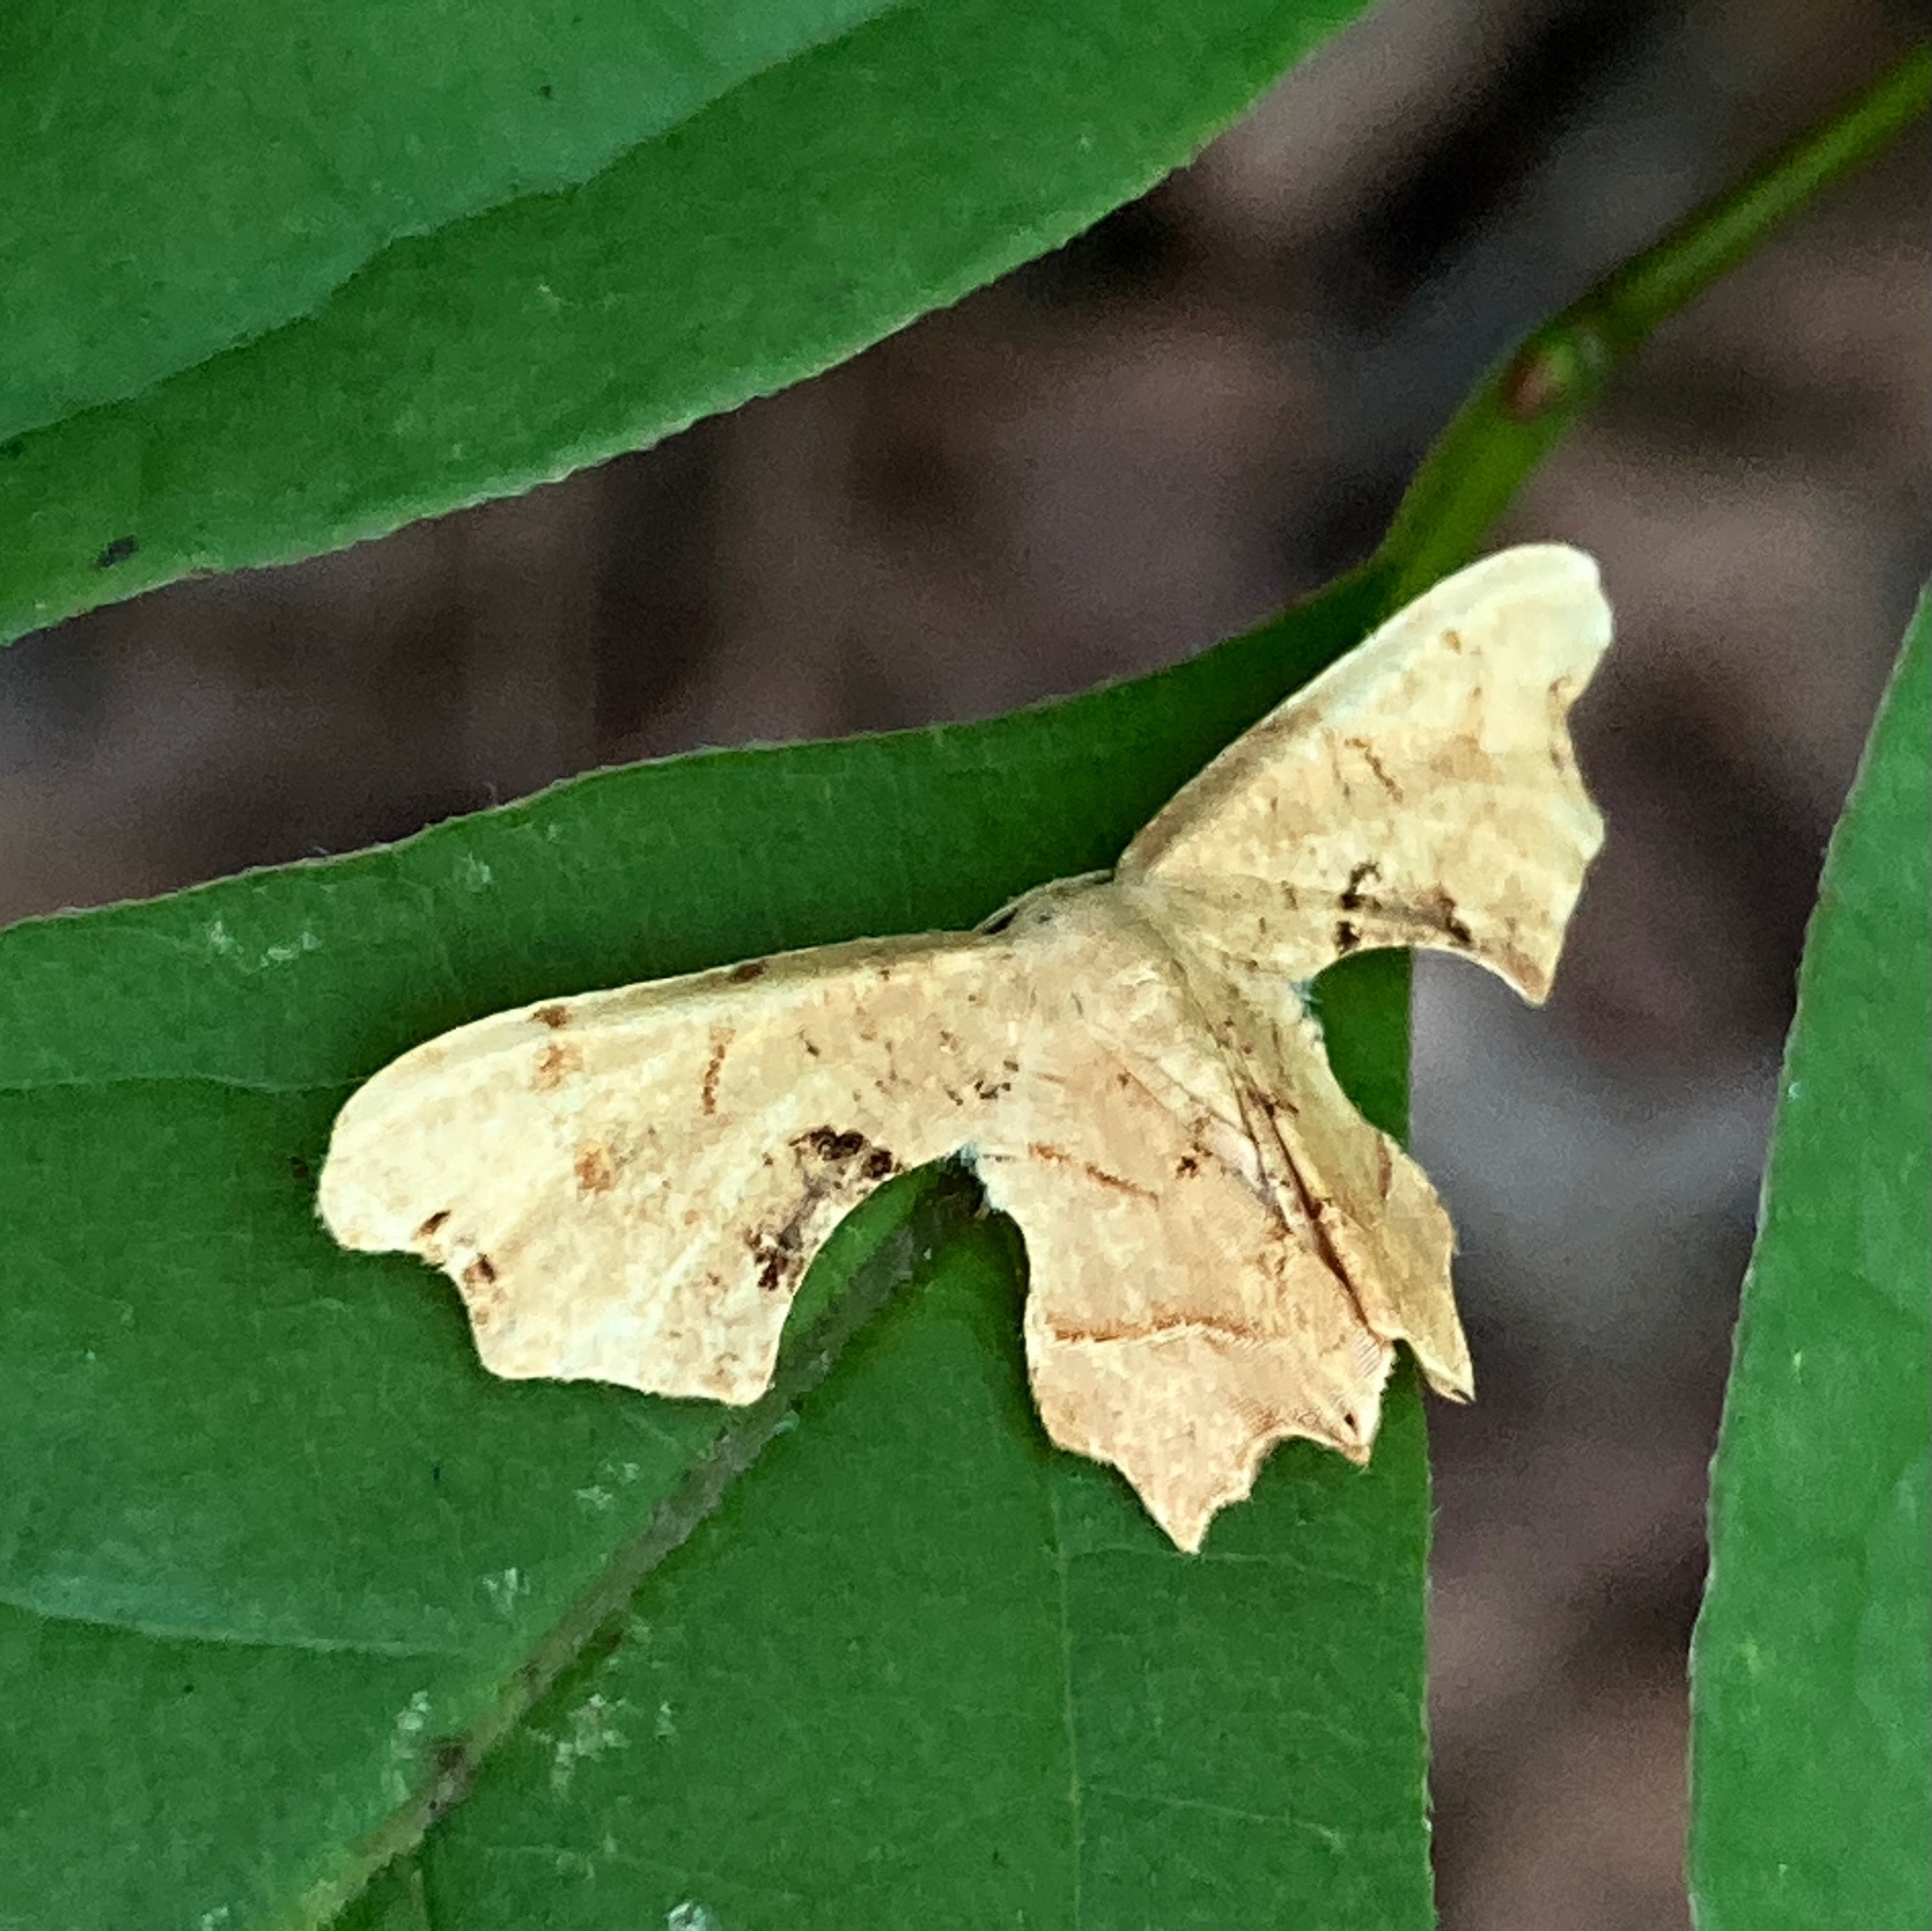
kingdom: Animalia
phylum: Arthropoda
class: Insecta
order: Lepidoptera
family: Uraniidae
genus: Epiplema
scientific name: Epiplema Calledapteryx dryopterata
